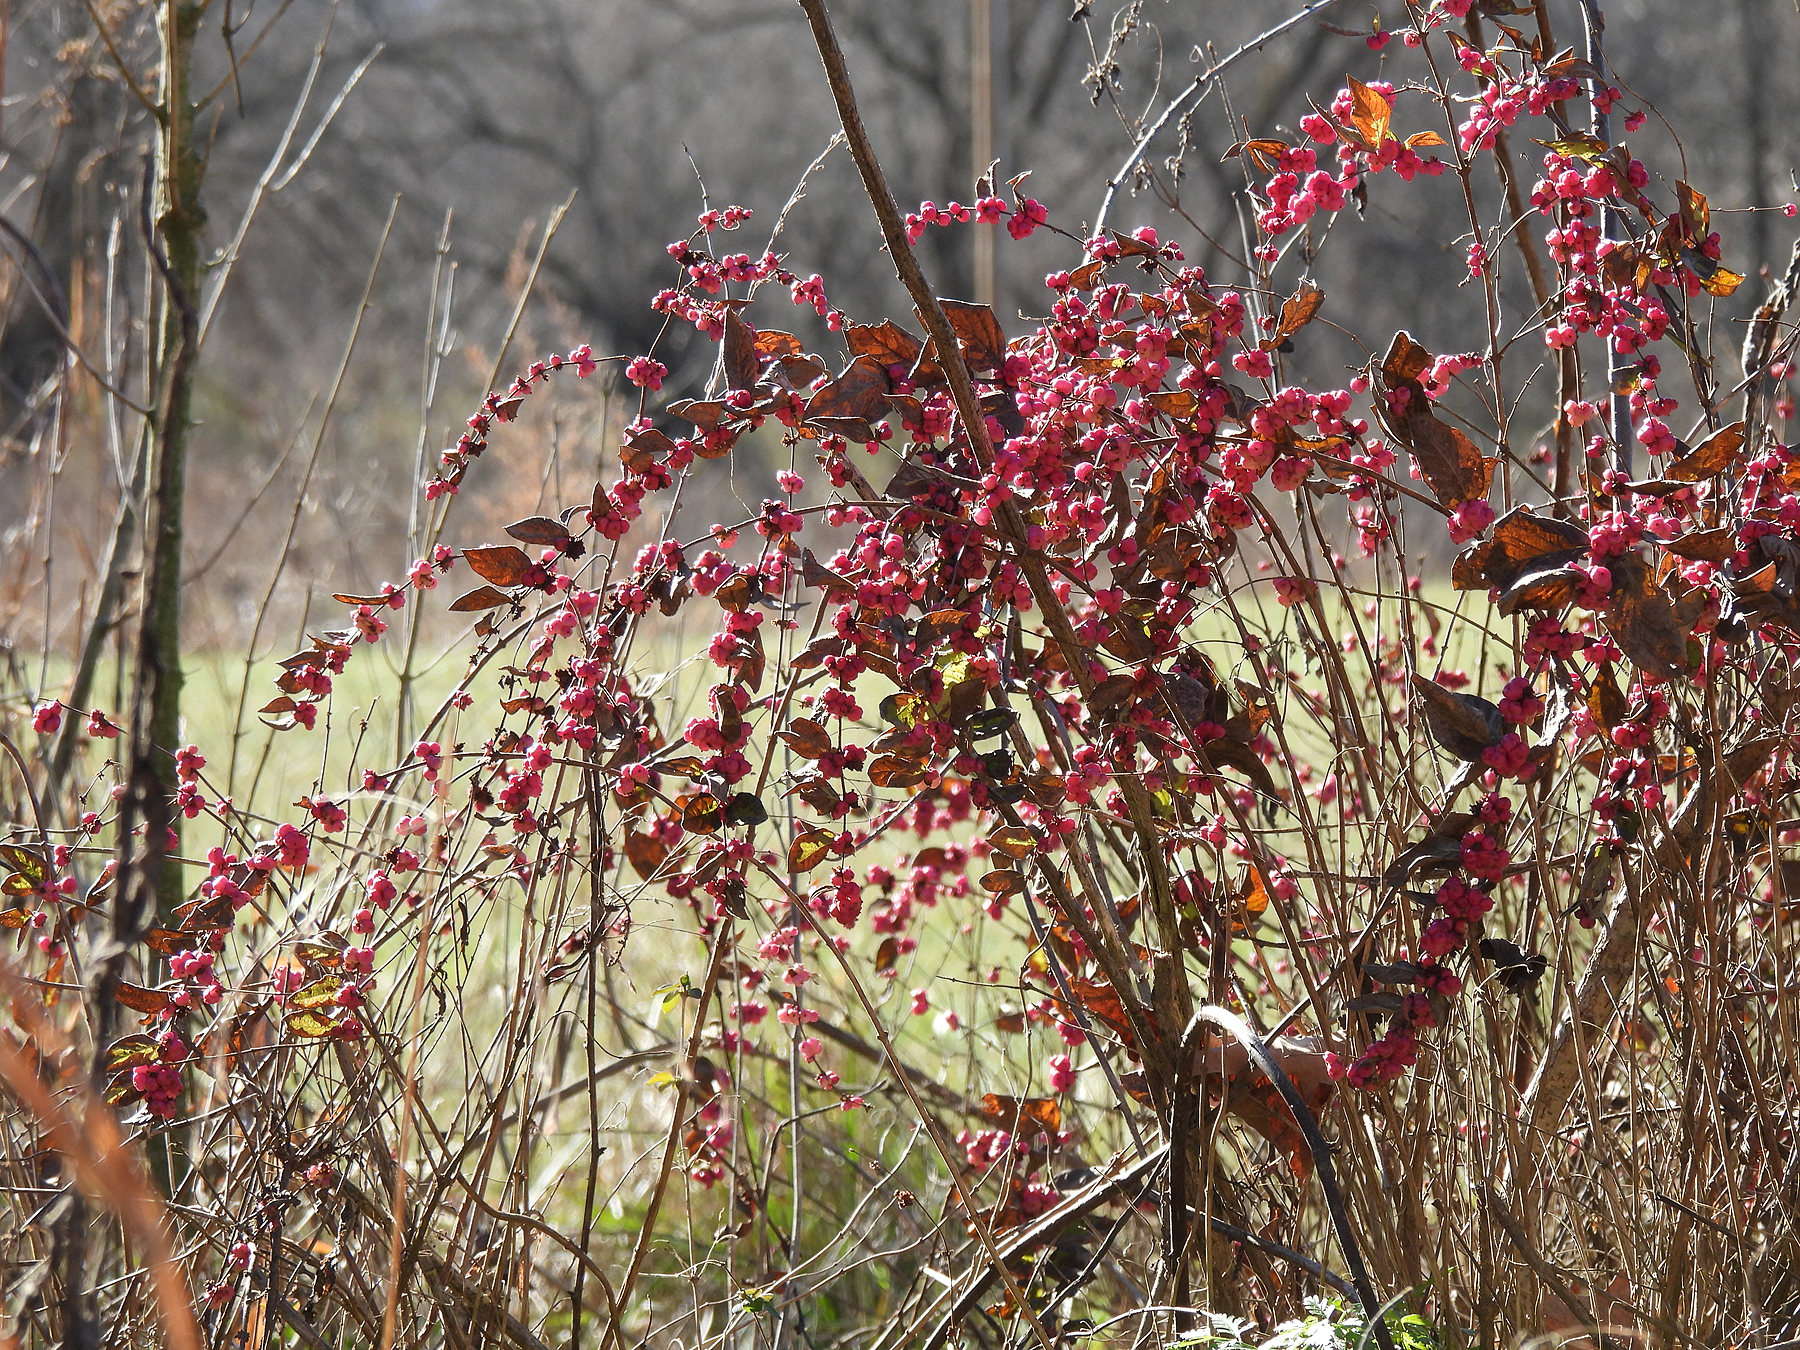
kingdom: Plantae
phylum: Tracheophyta
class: Magnoliopsida
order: Dipsacales
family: Caprifoliaceae
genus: Symphoricarpos
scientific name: Symphoricarpos orbiculatus
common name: Coralberry
